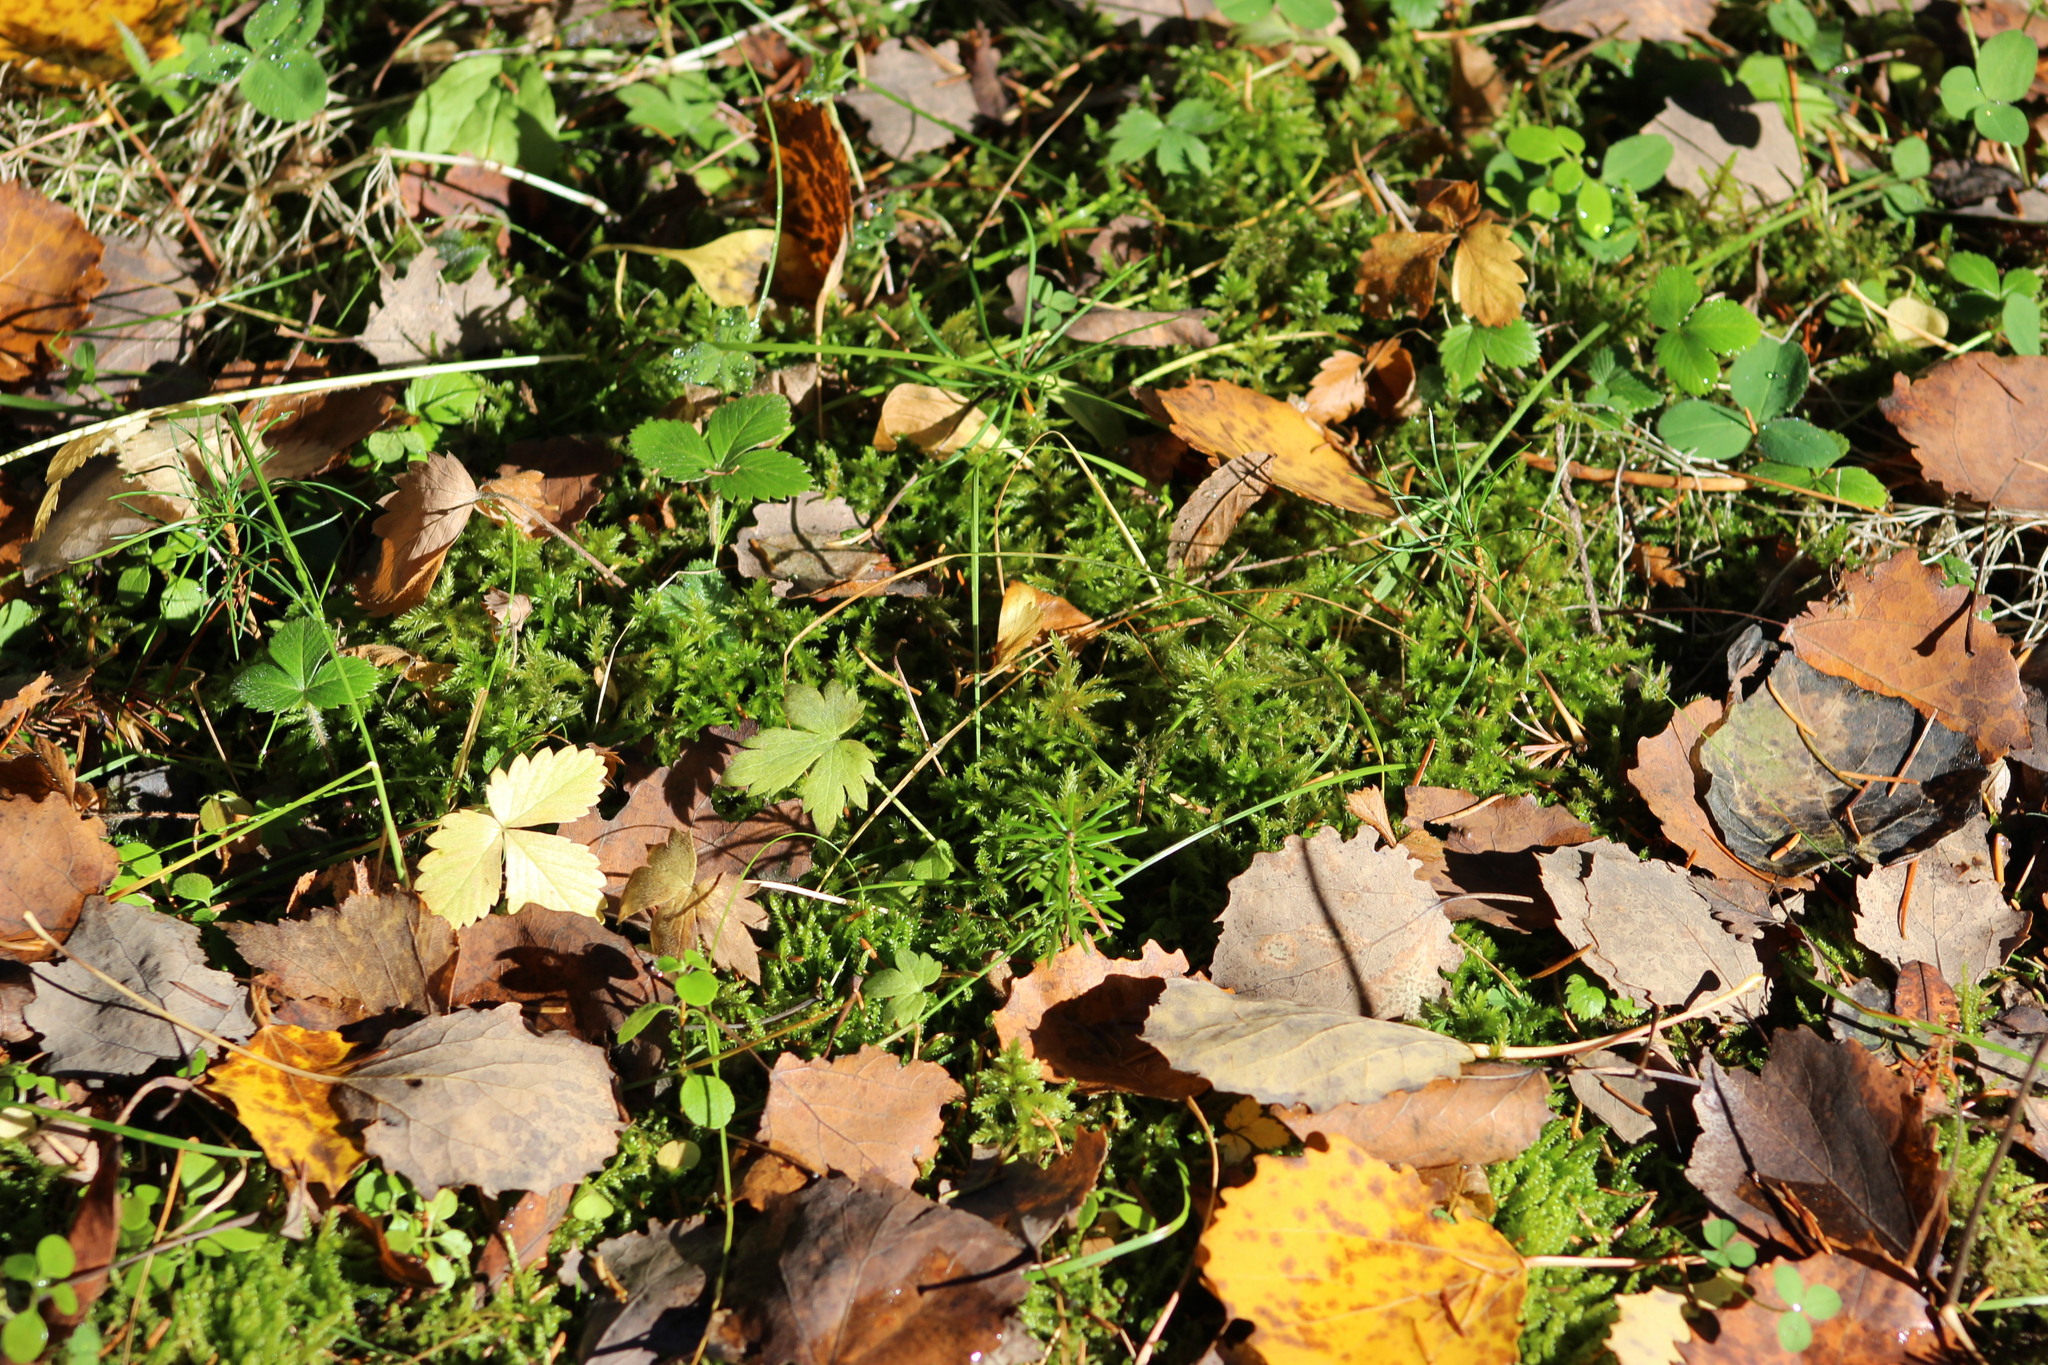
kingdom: Plantae
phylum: Tracheophyta
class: Magnoliopsida
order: Rosales
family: Rosaceae
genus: Fragaria
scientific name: Fragaria vesca
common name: Wild strawberry
